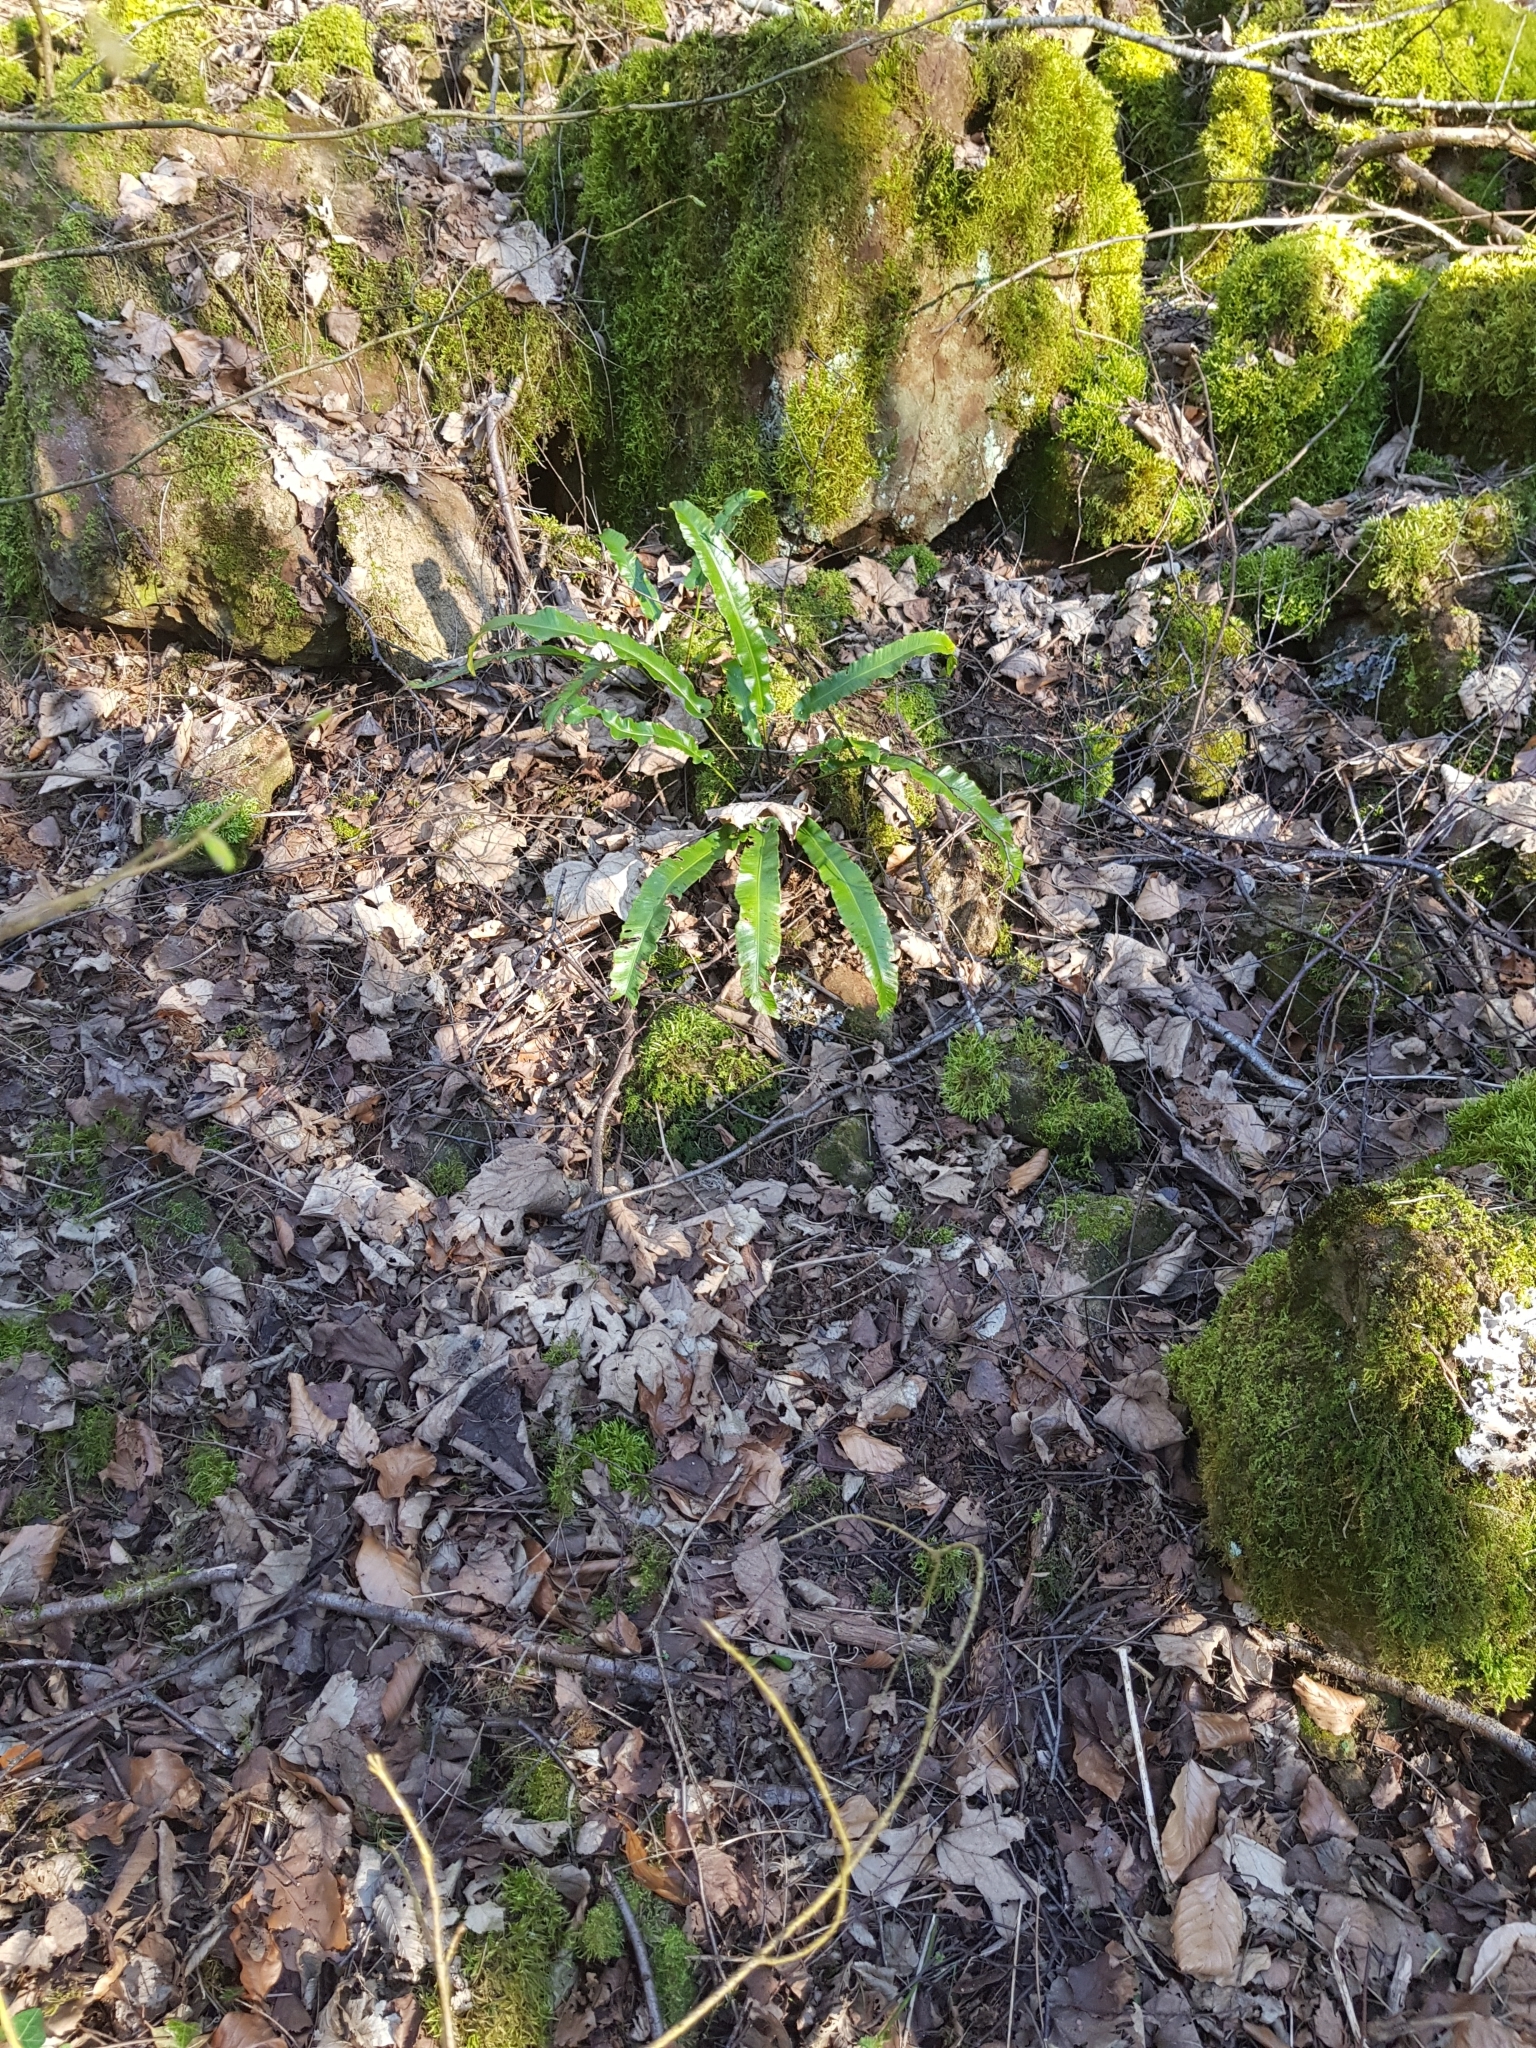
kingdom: Plantae
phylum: Tracheophyta
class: Polypodiopsida
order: Polypodiales
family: Aspleniaceae
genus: Asplenium
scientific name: Asplenium scolopendrium
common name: Hart's-tongue fern
